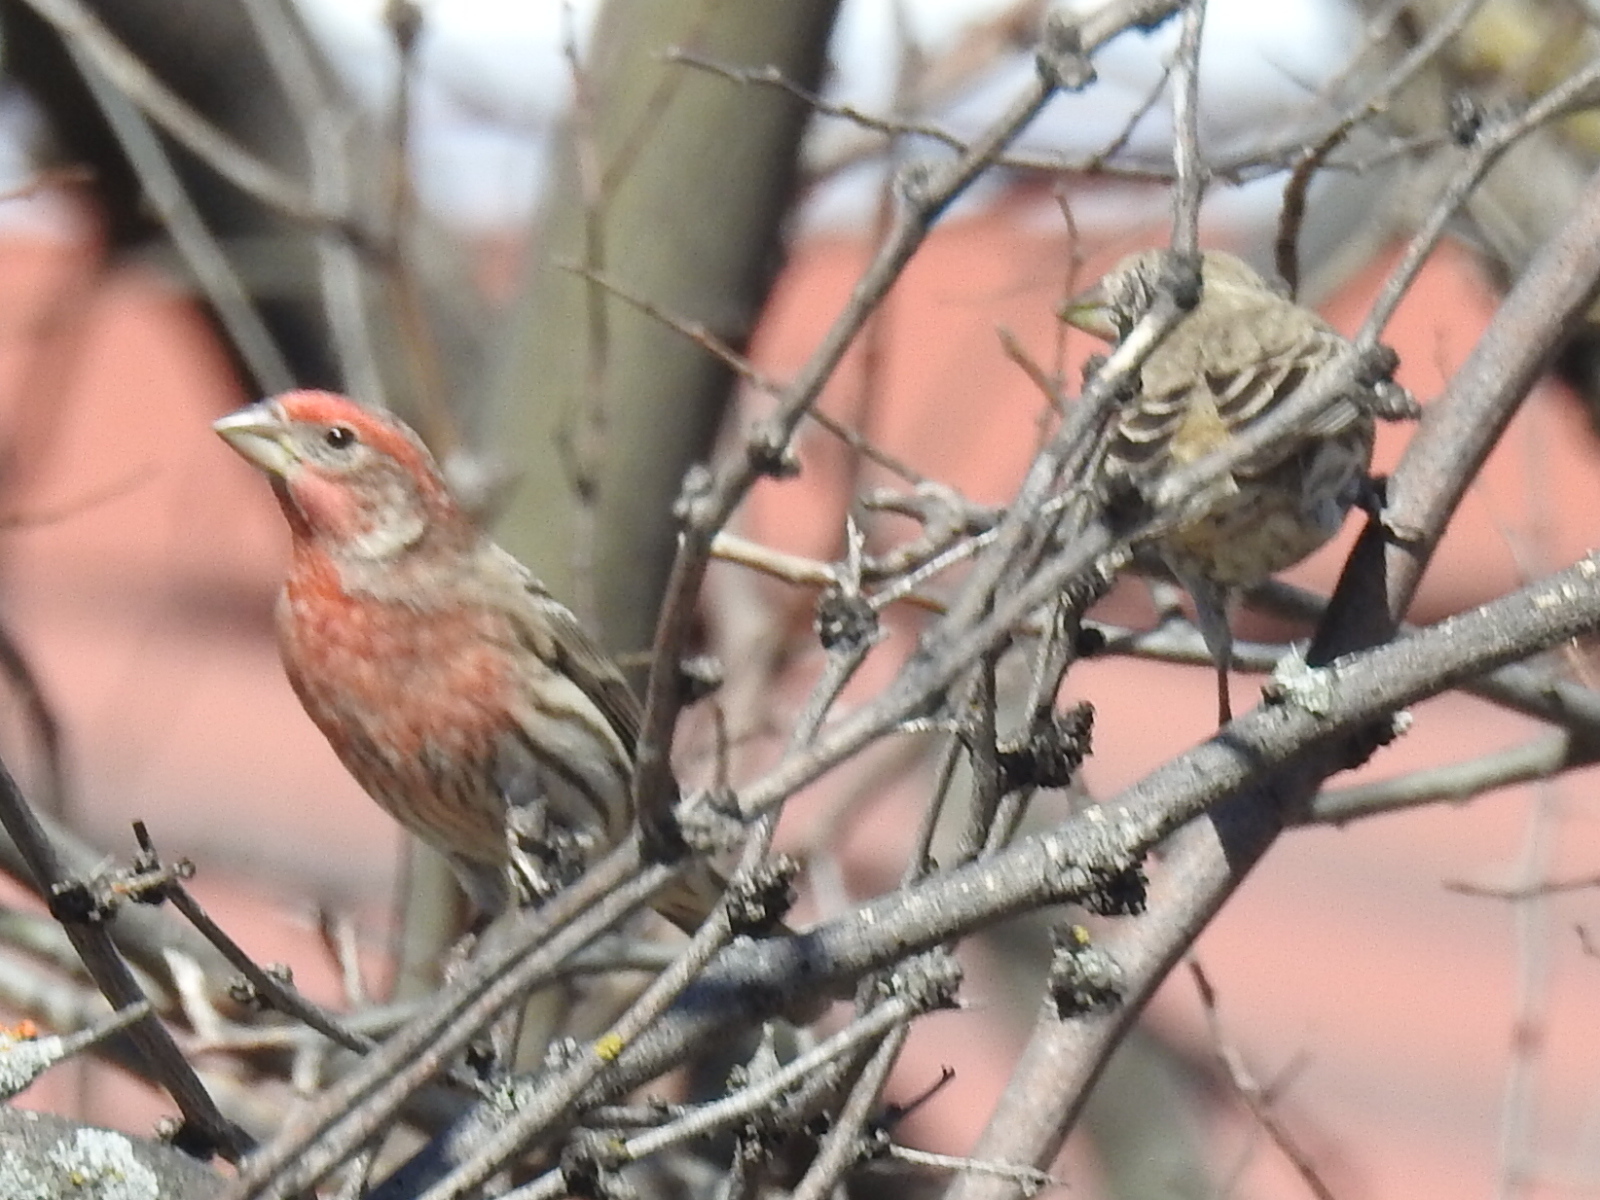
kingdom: Animalia
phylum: Chordata
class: Aves
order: Passeriformes
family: Fringillidae
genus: Haemorhous
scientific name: Haemorhous mexicanus
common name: House finch
